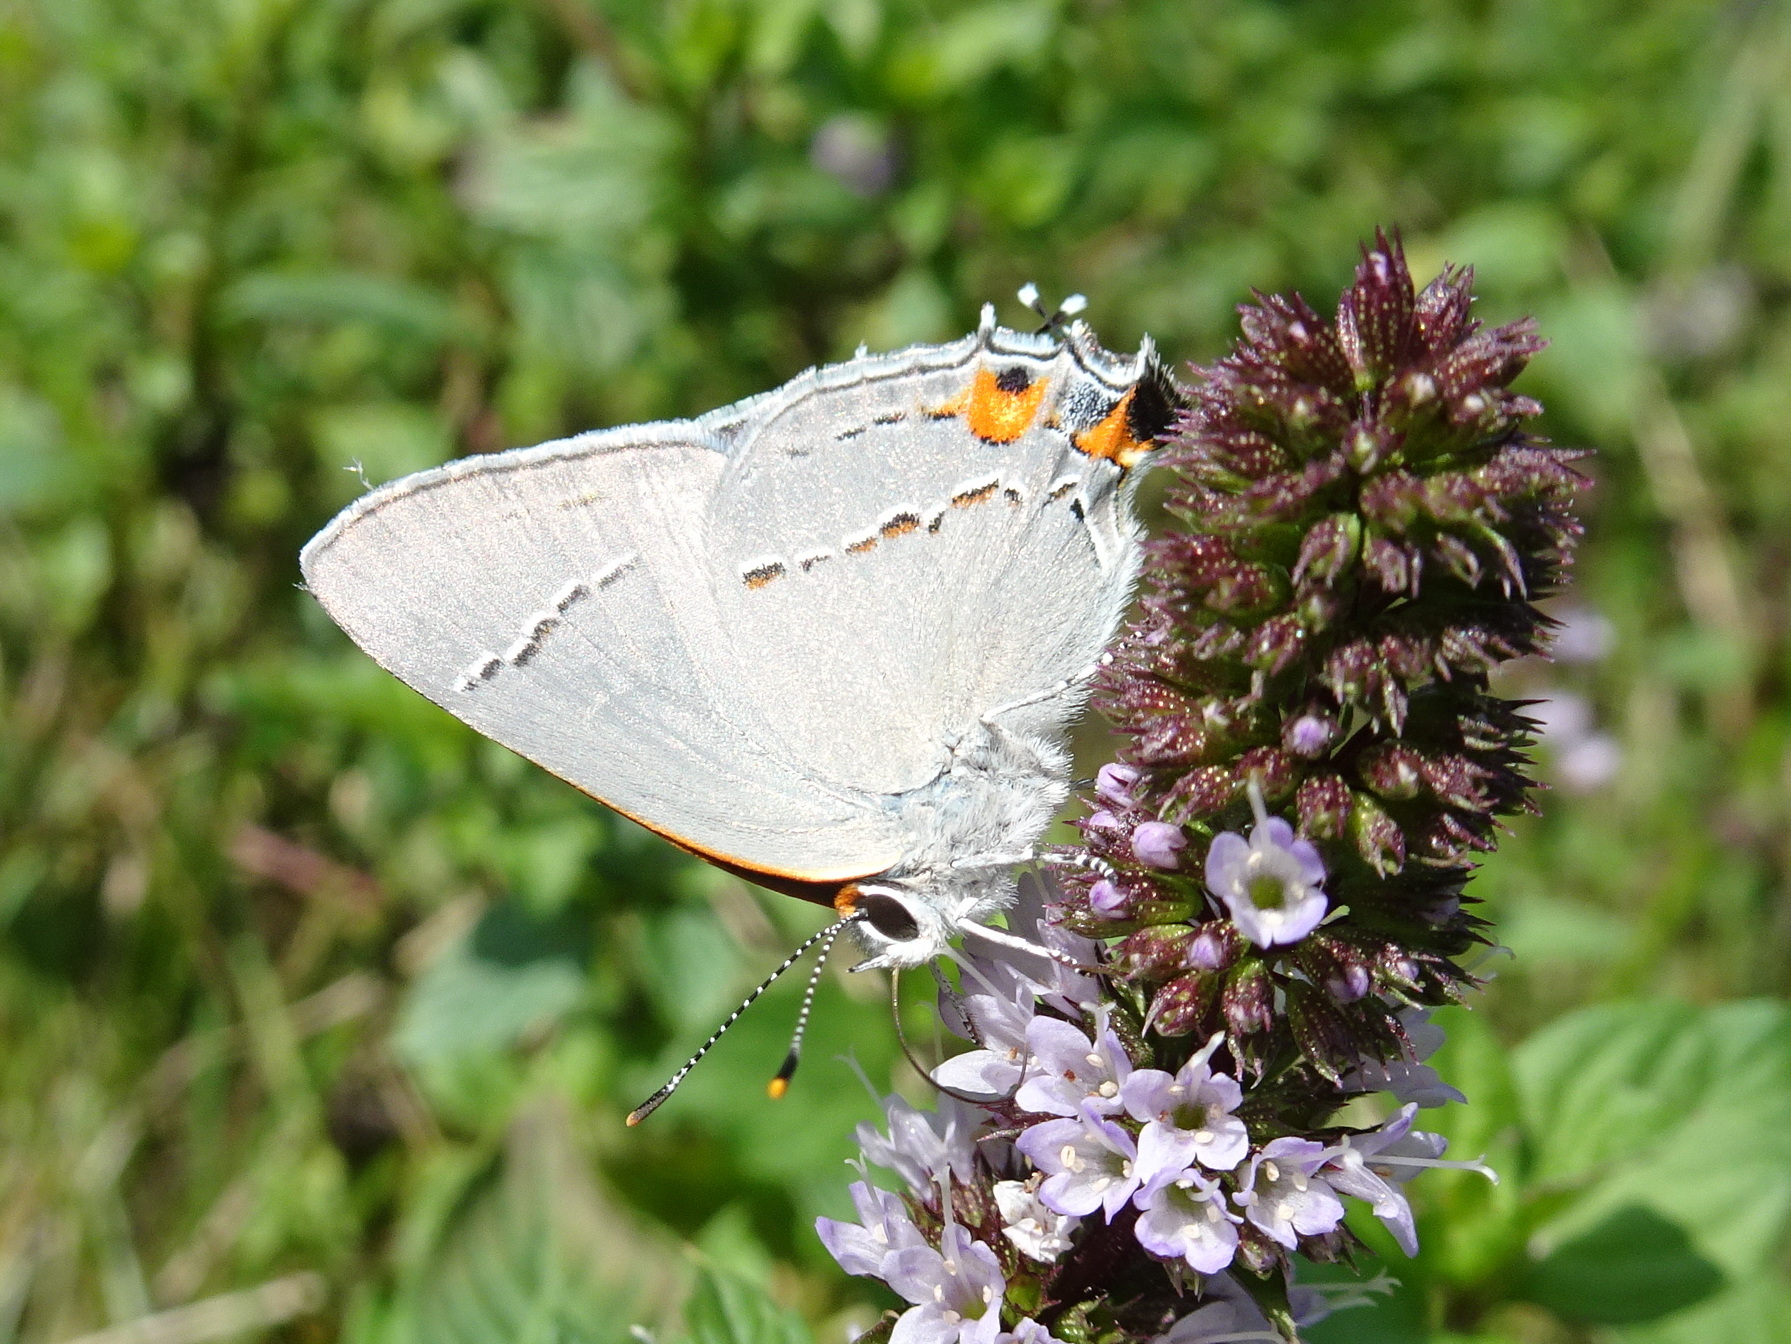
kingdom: Animalia
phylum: Arthropoda
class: Insecta
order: Lepidoptera
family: Lycaenidae
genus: Strymon
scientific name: Strymon melinus
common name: Gray hairstreak
